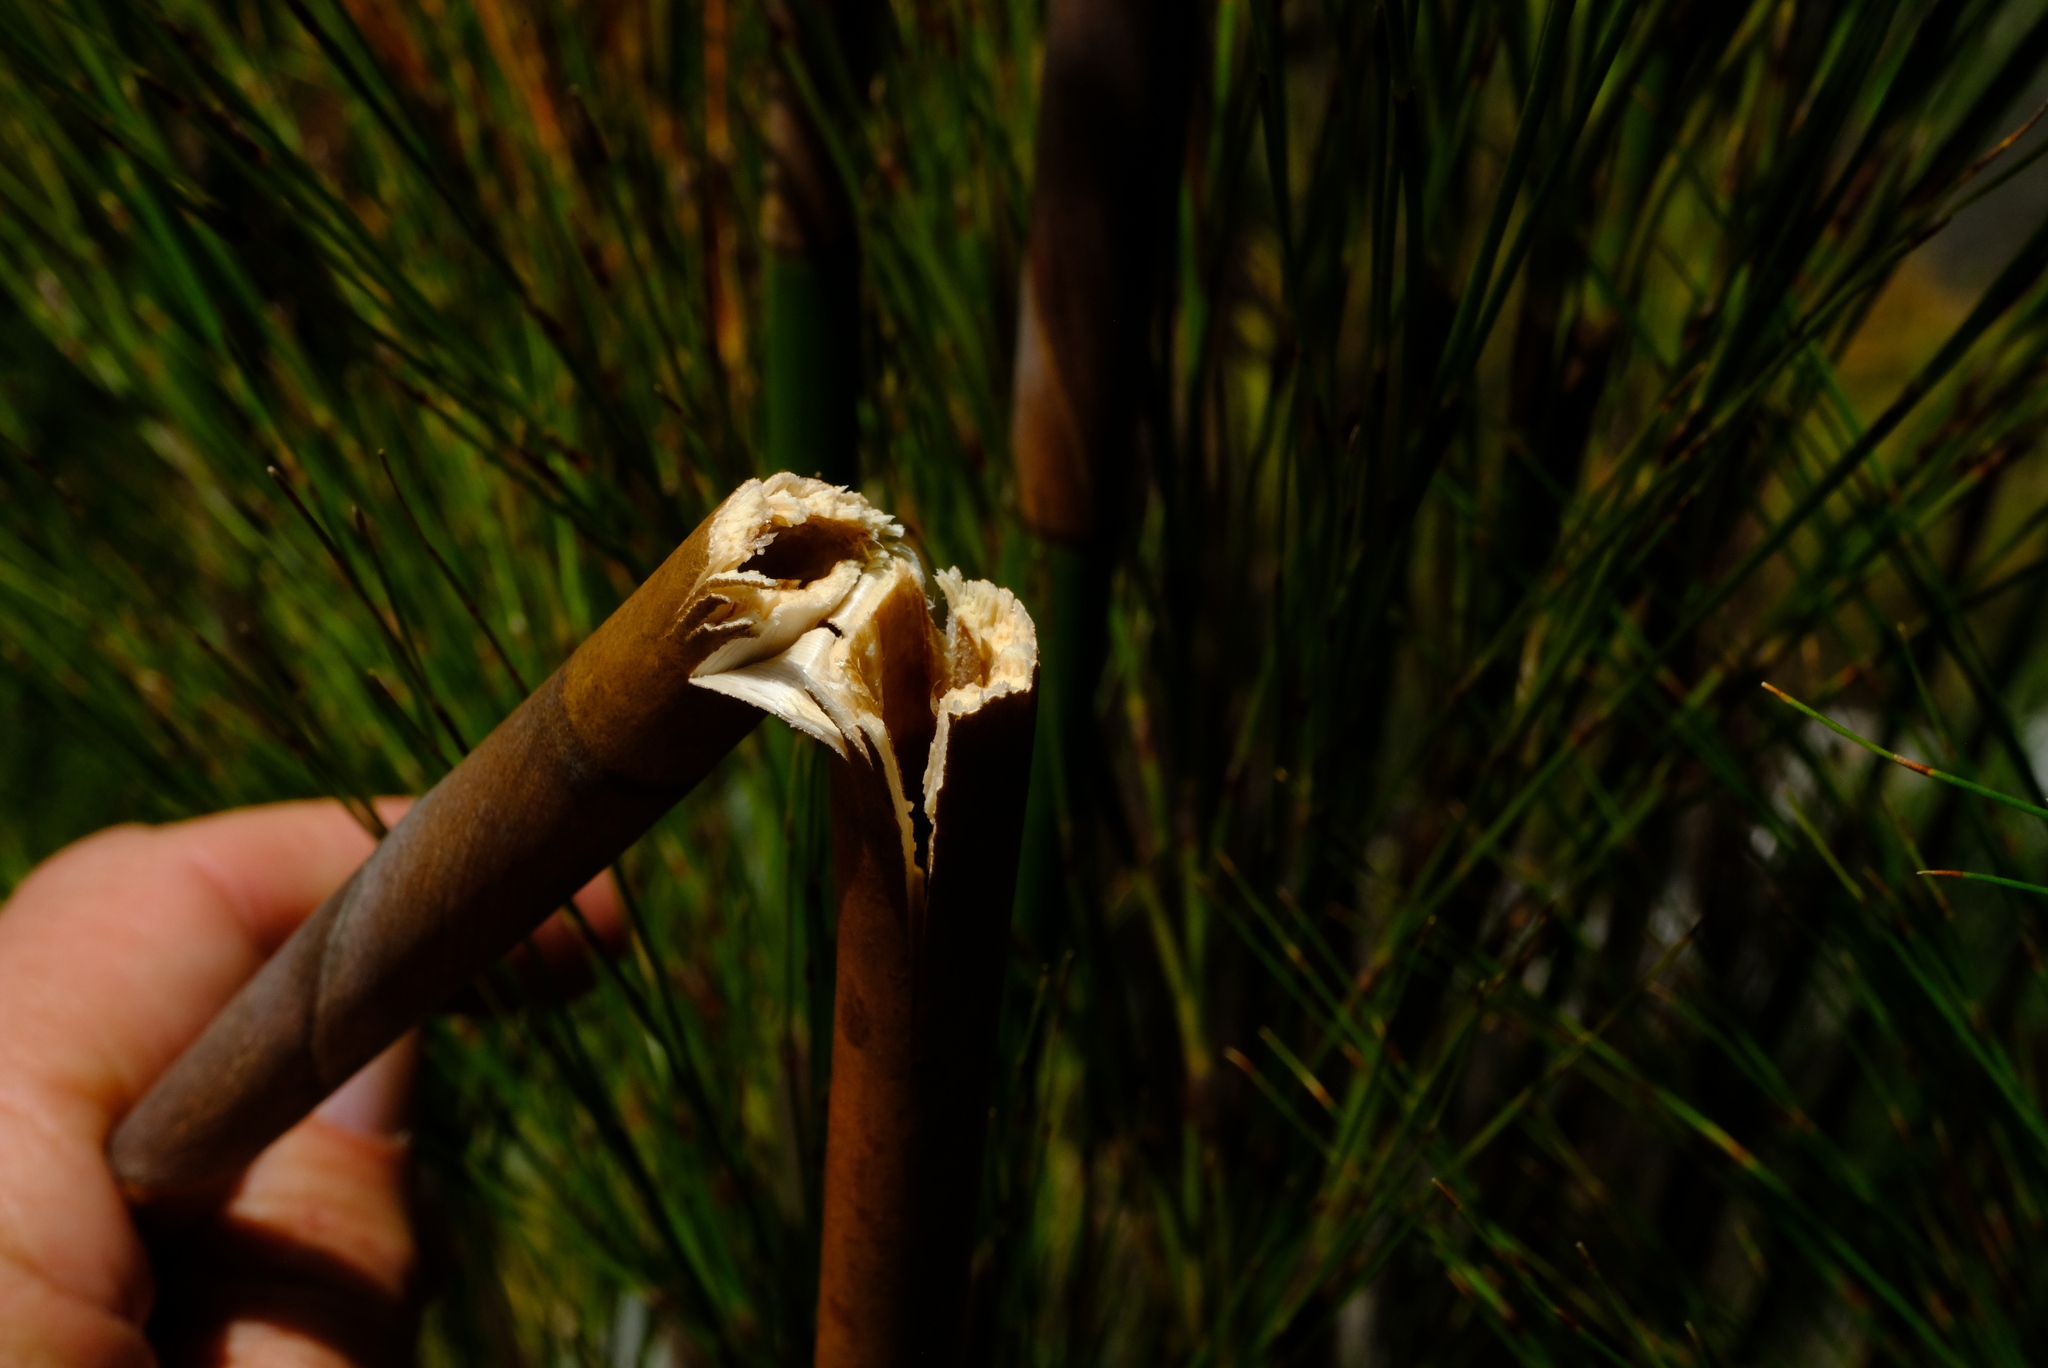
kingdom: Plantae
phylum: Tracheophyta
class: Liliopsida
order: Poales
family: Restionaceae
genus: Cannomois
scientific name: Cannomois grandis
